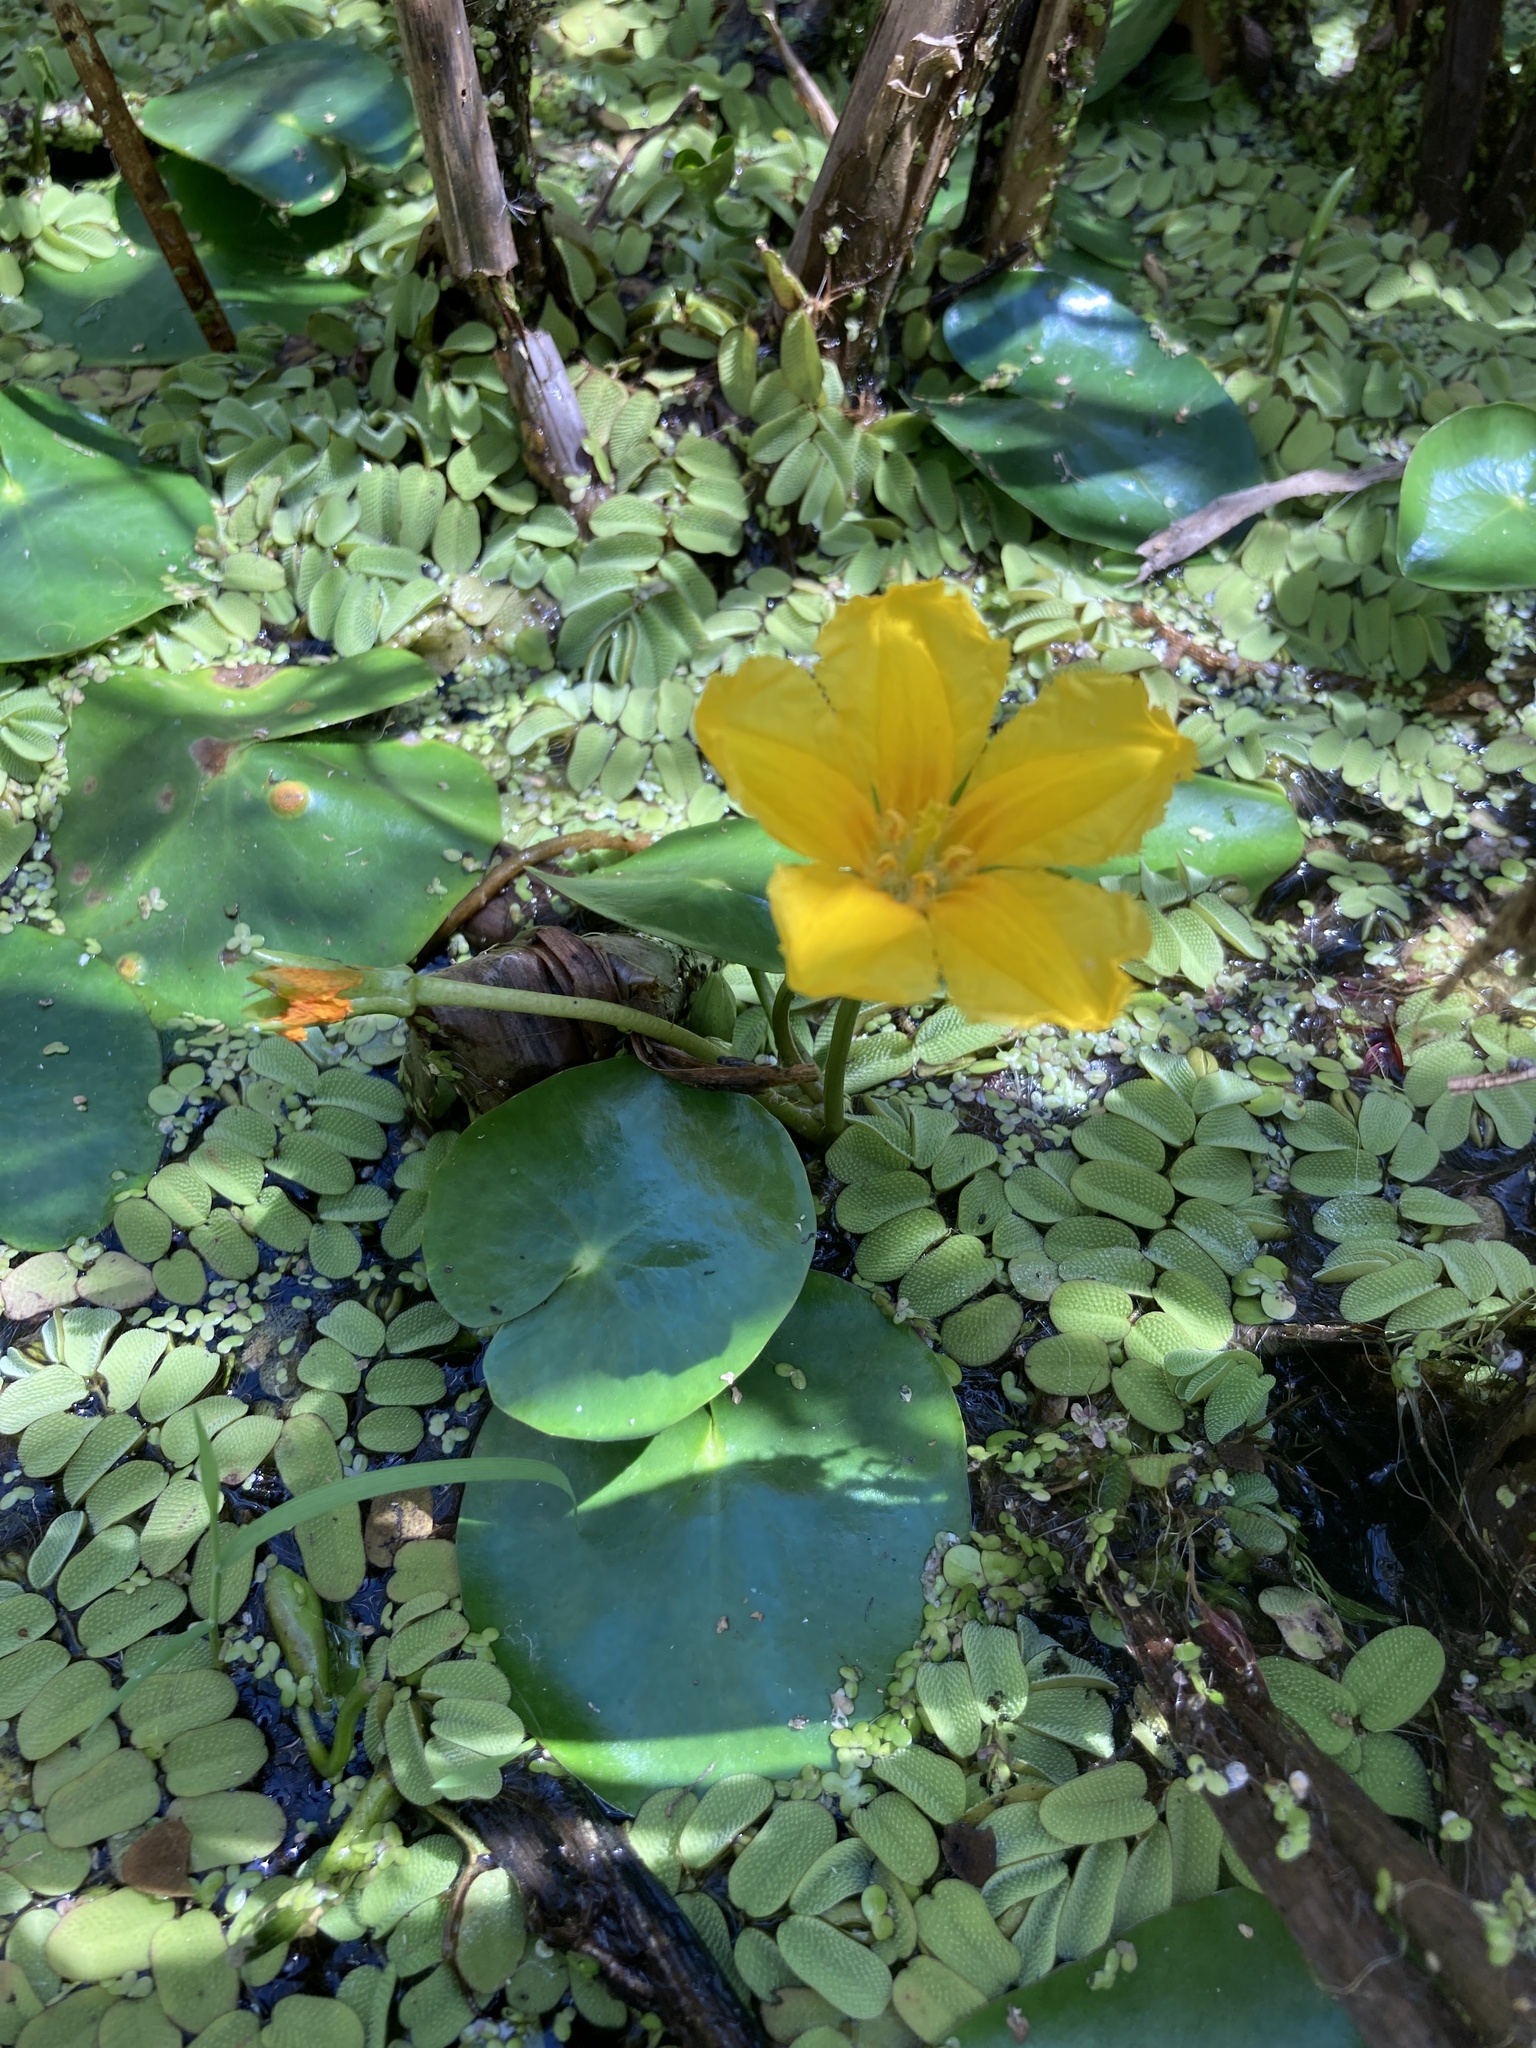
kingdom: Plantae
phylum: Tracheophyta
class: Magnoliopsida
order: Asterales
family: Menyanthaceae
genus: Nymphoides
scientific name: Nymphoides peltata
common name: Fringed water-lily
